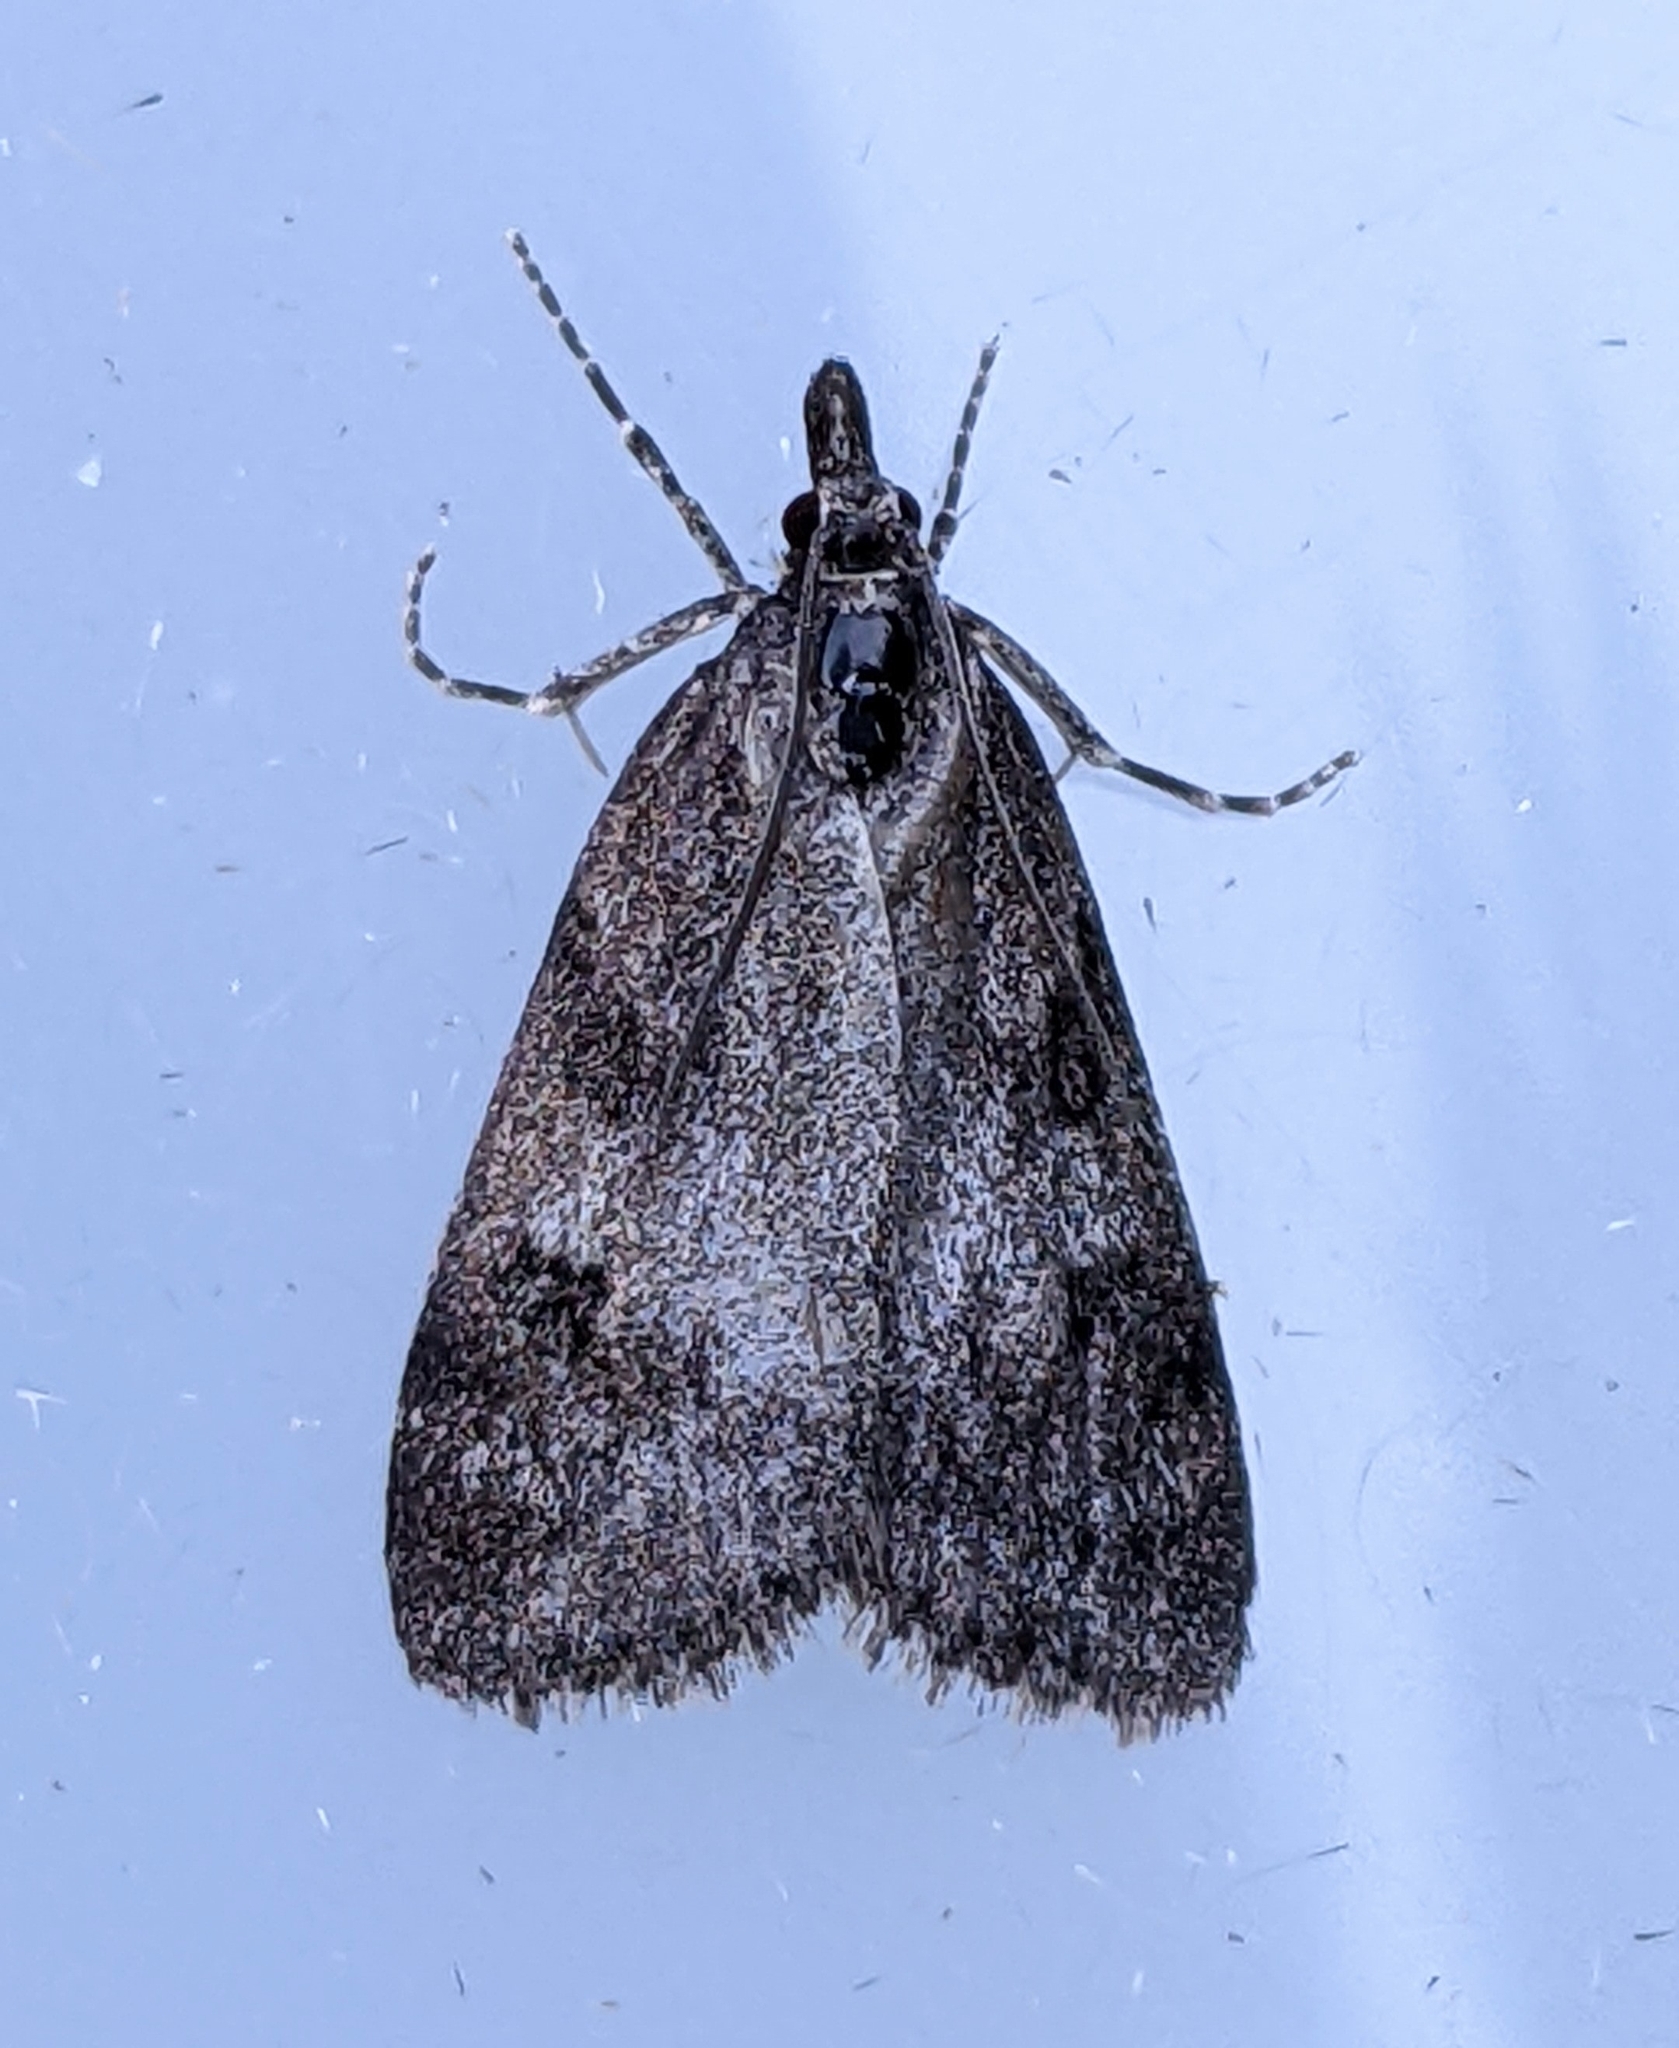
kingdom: Animalia
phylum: Arthropoda
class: Insecta
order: Lepidoptera
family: Crambidae
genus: Gesneria
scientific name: Gesneria centuriella
